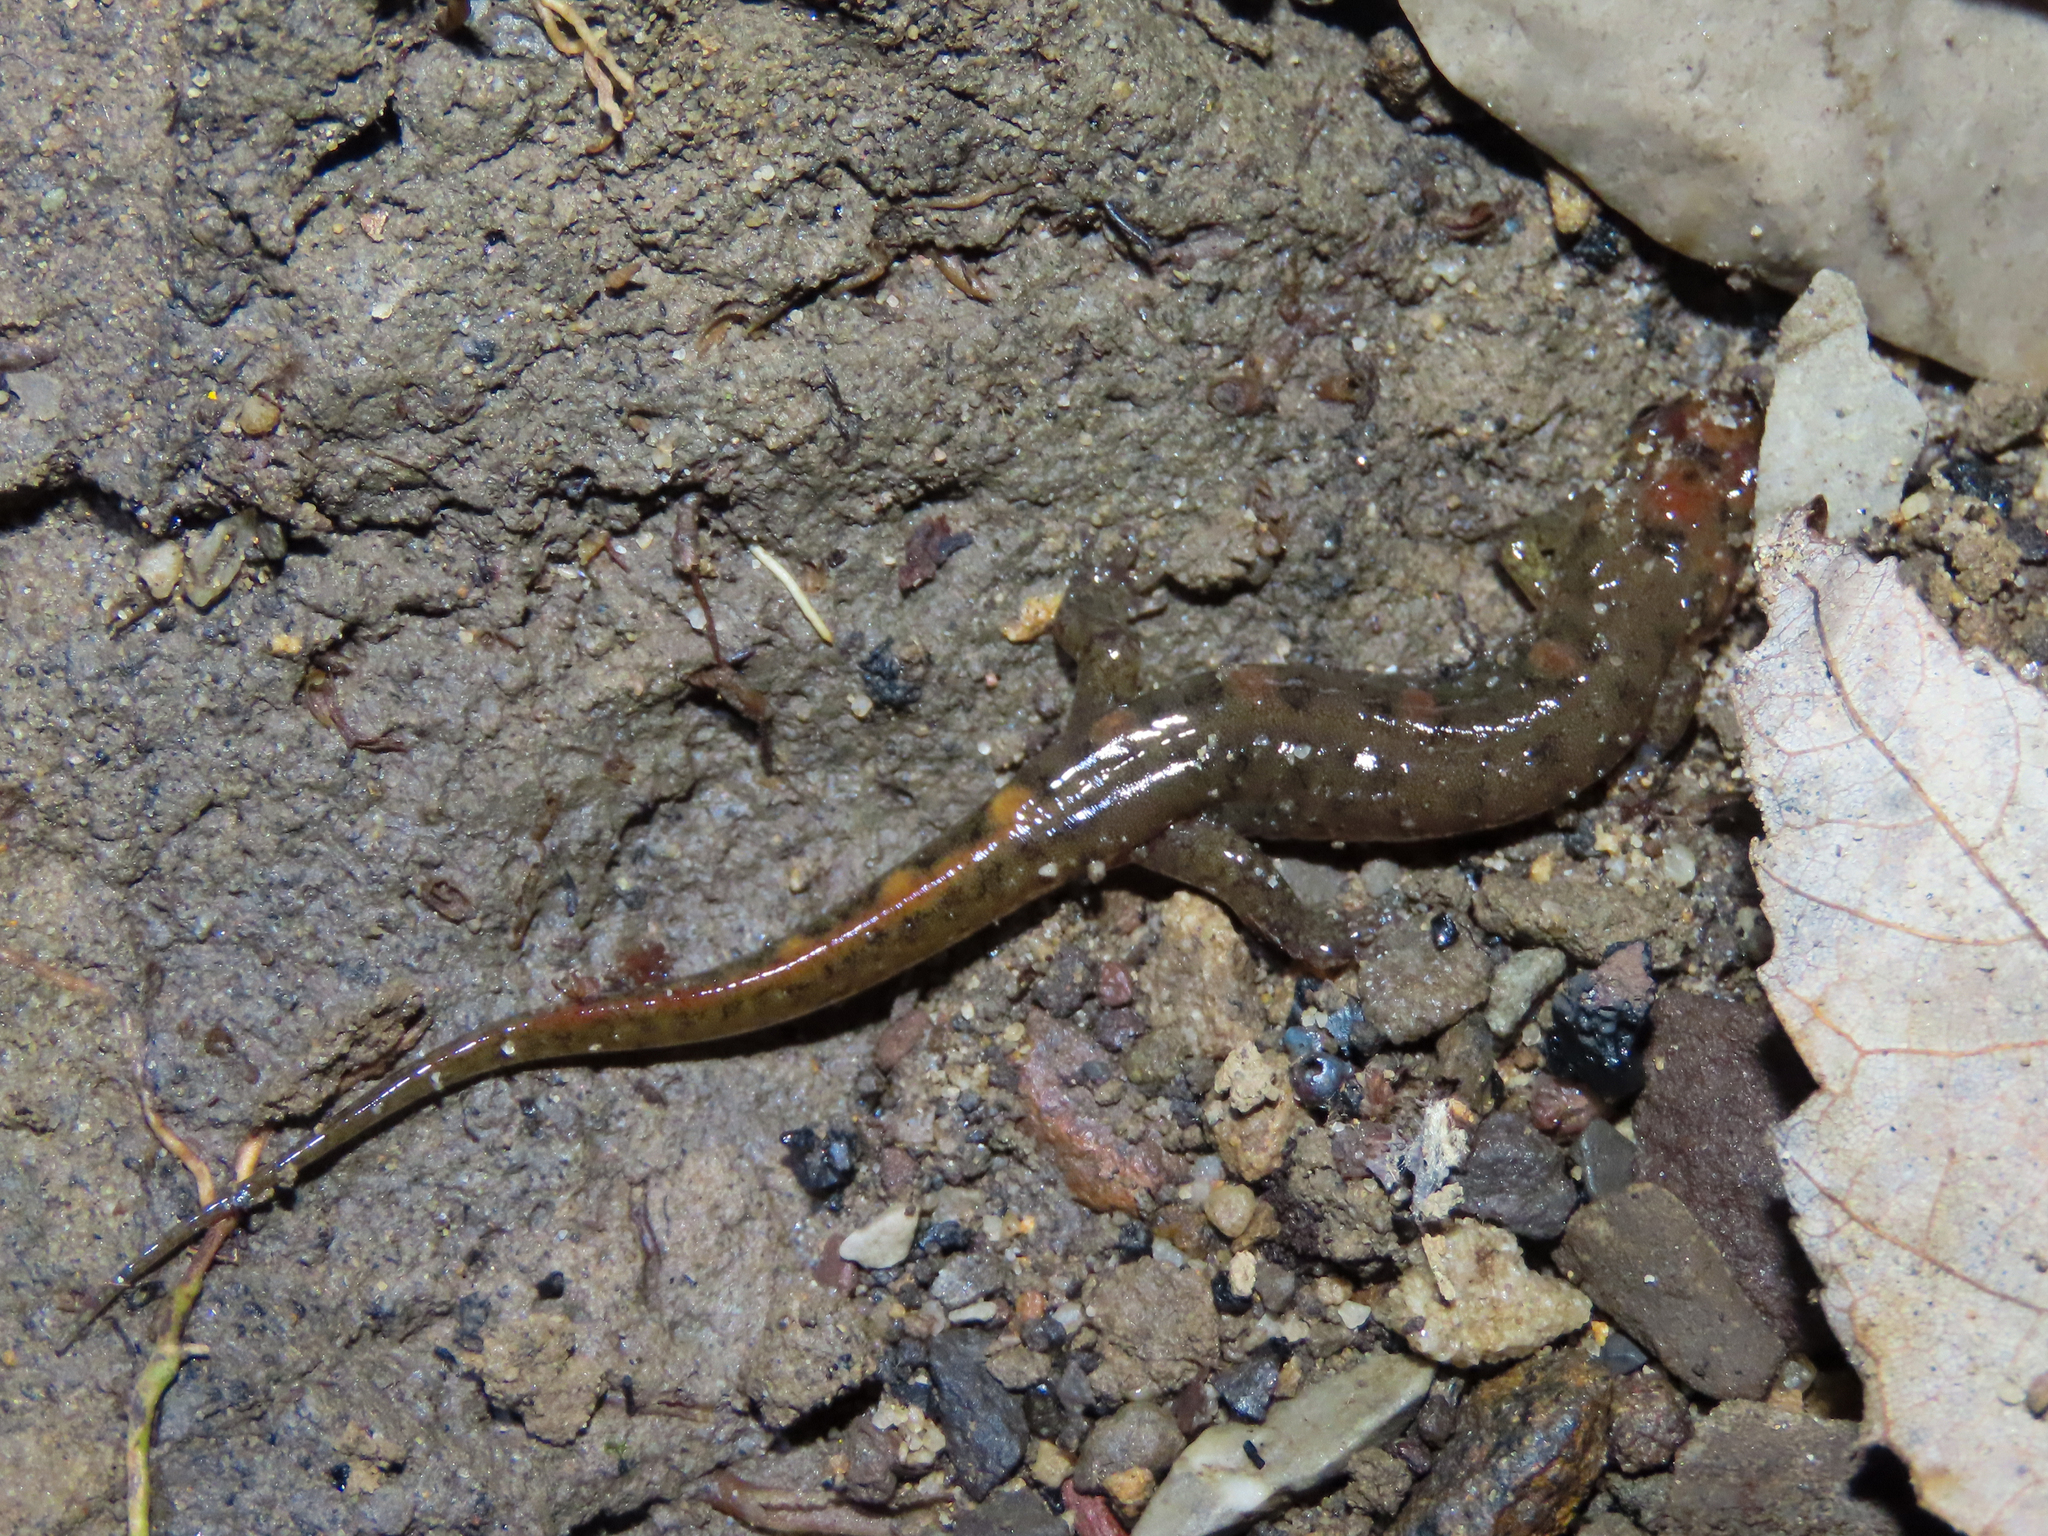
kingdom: Animalia
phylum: Chordata
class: Amphibia
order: Caudata
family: Plethodontidae
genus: Desmognathus
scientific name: Desmognathus monticola
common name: Seal salamander
